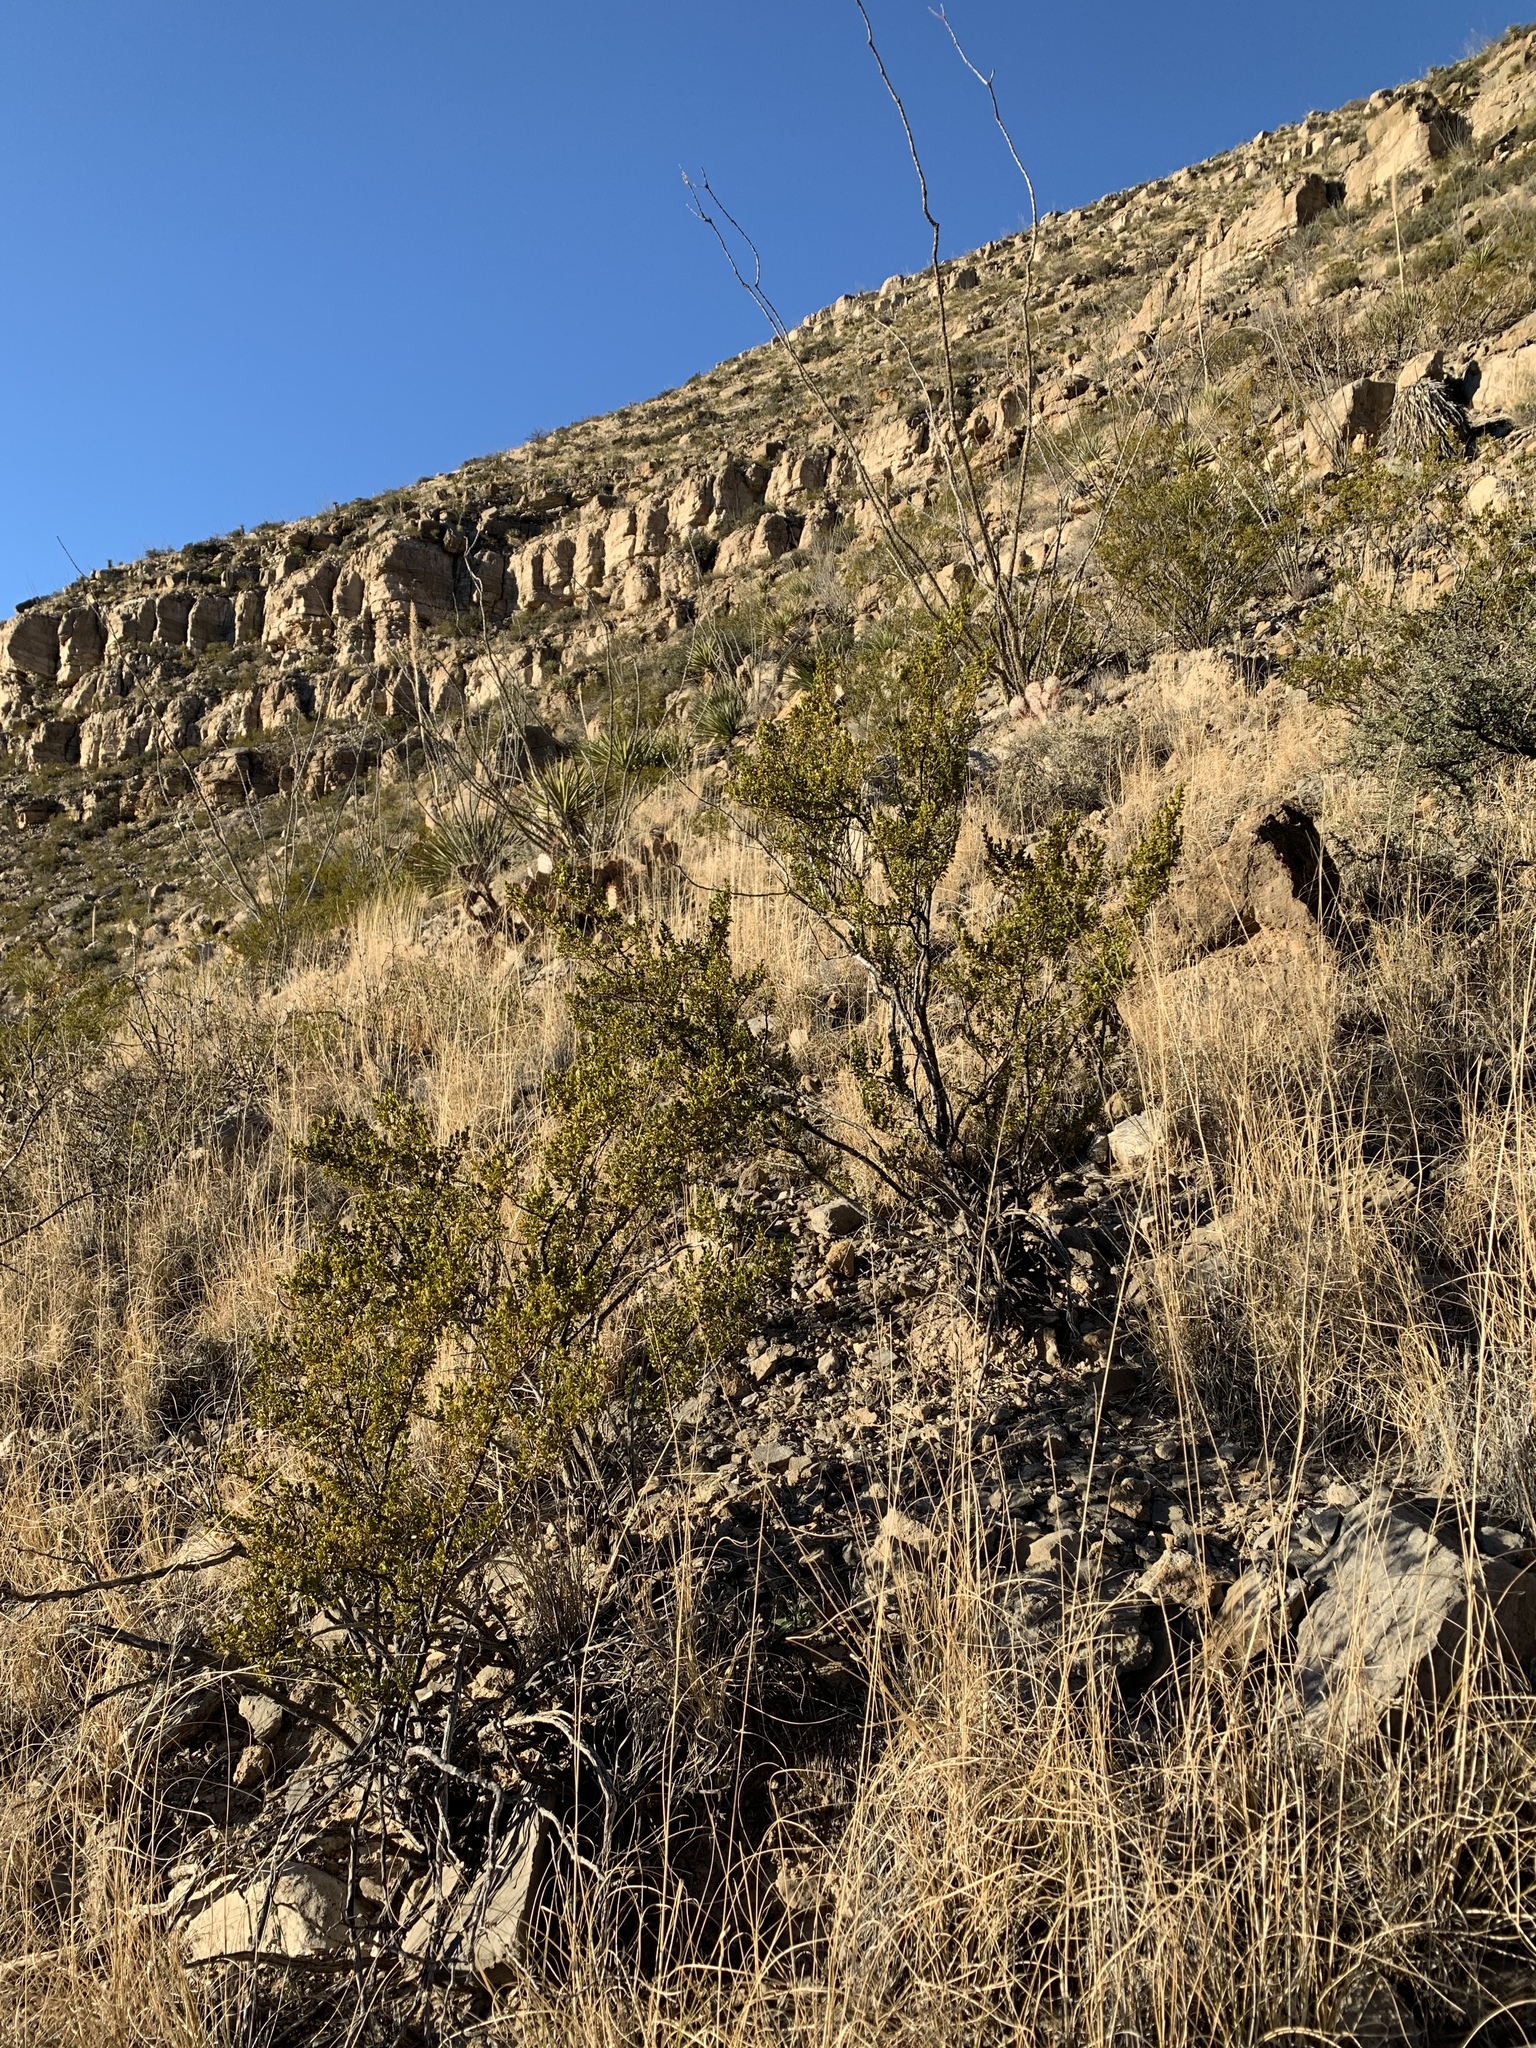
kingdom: Plantae
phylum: Tracheophyta
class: Magnoliopsida
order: Zygophyllales
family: Zygophyllaceae
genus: Larrea
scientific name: Larrea tridentata
